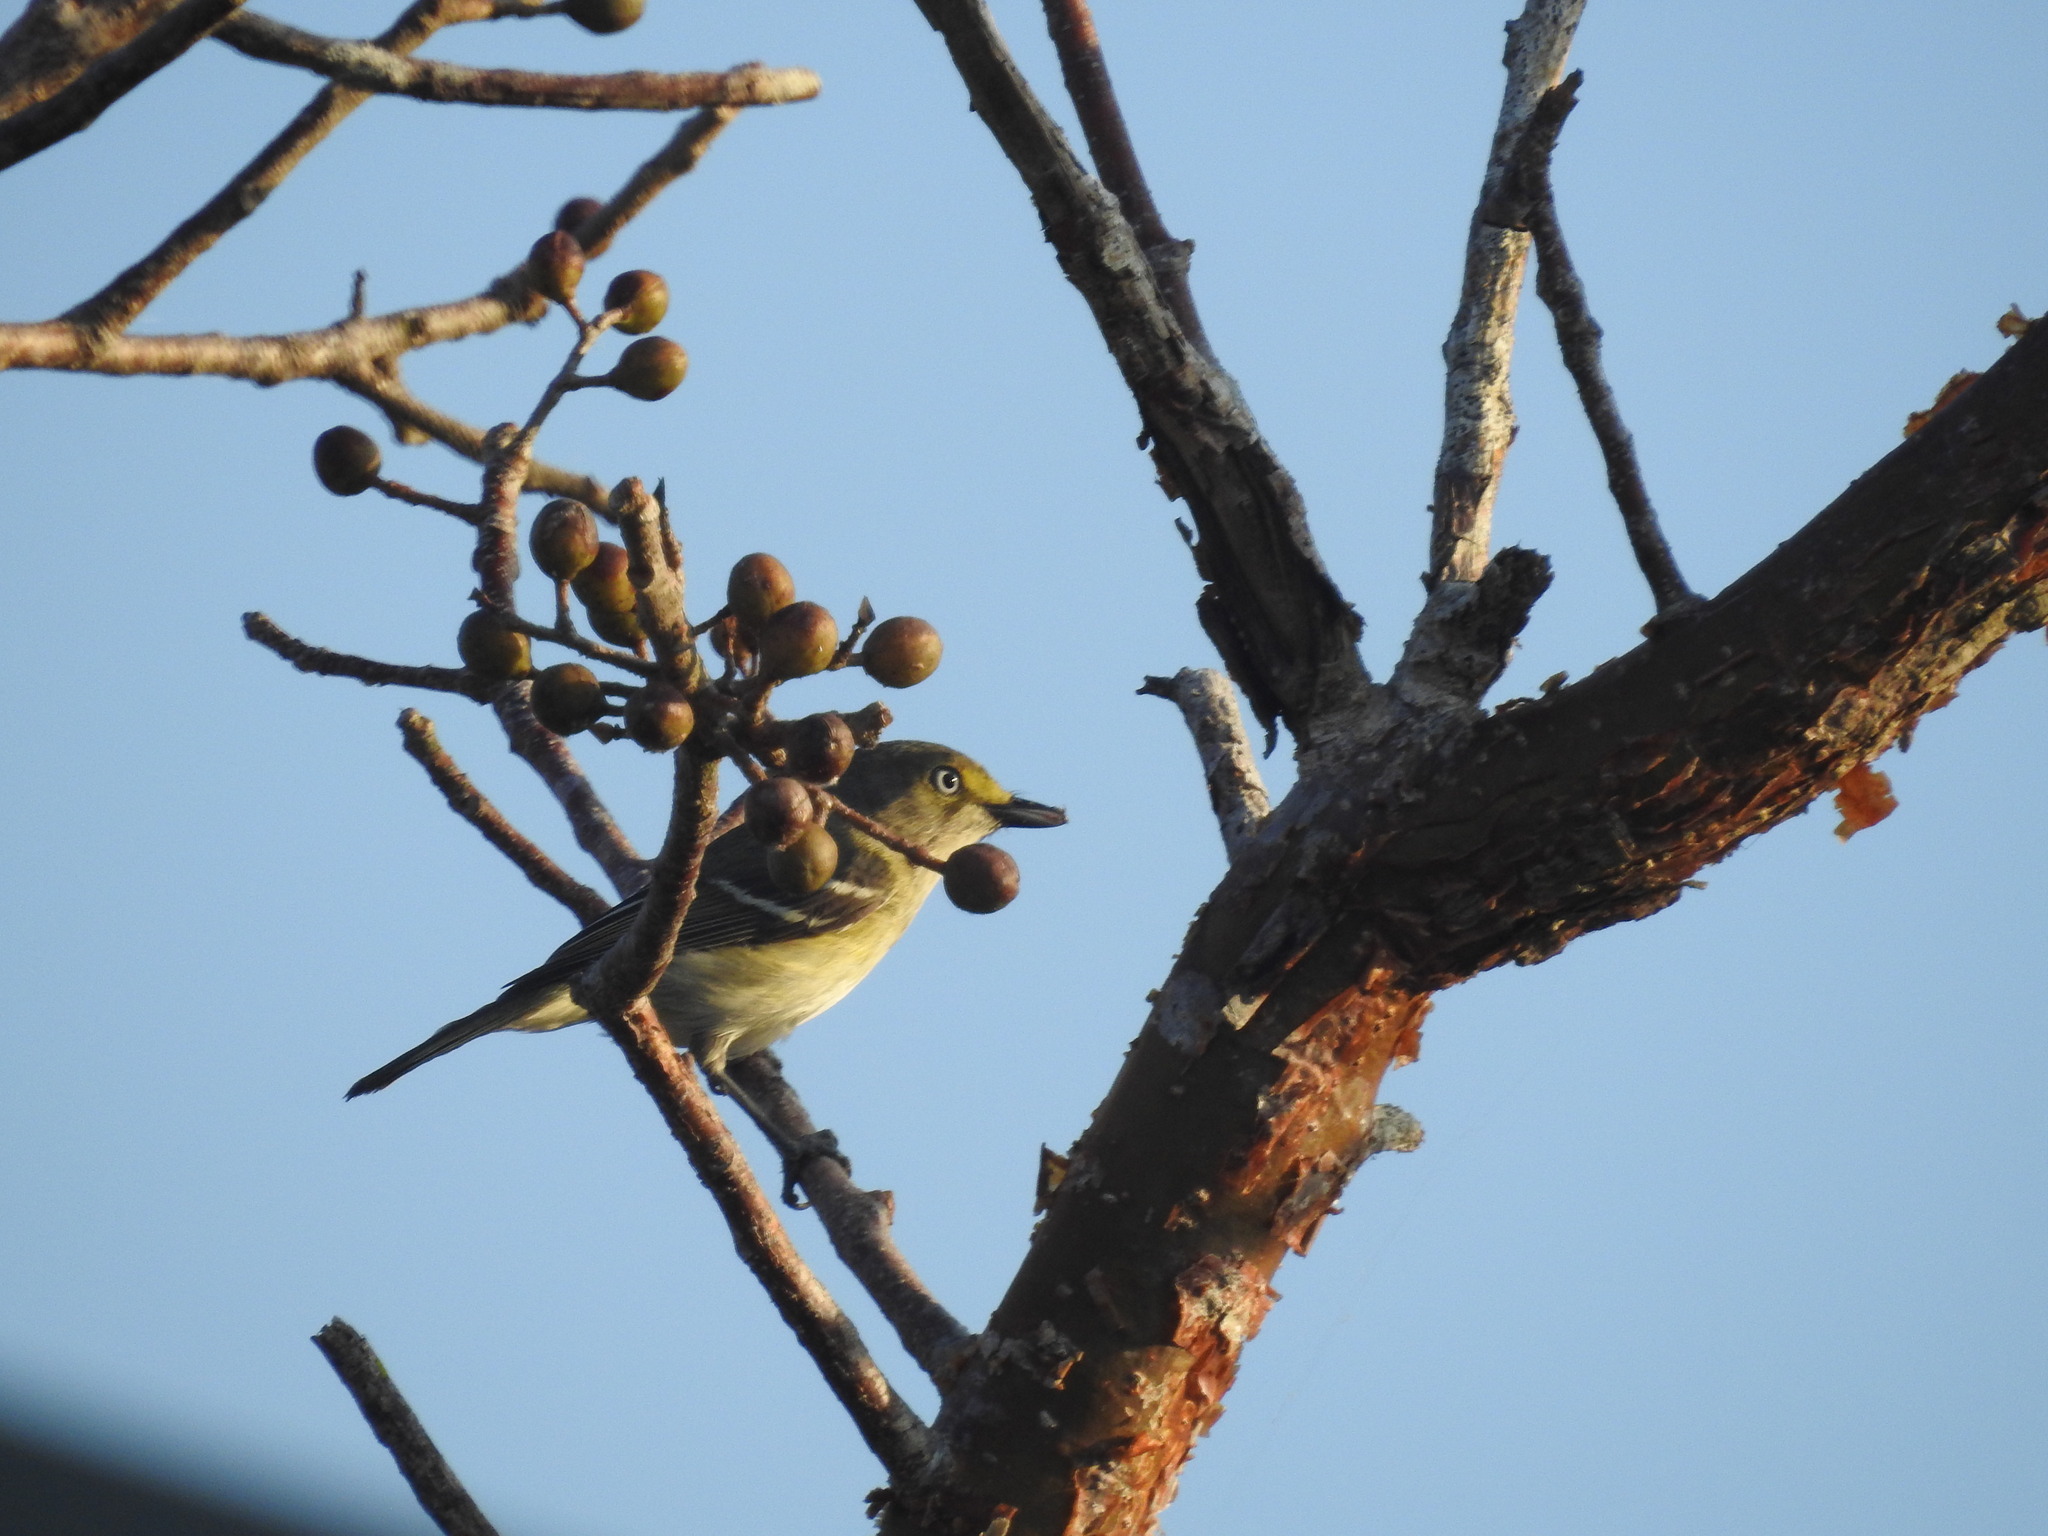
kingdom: Animalia
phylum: Chordata
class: Aves
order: Passeriformes
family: Vireonidae
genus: Vireo
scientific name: Vireo griseus
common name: White-eyed vireo
